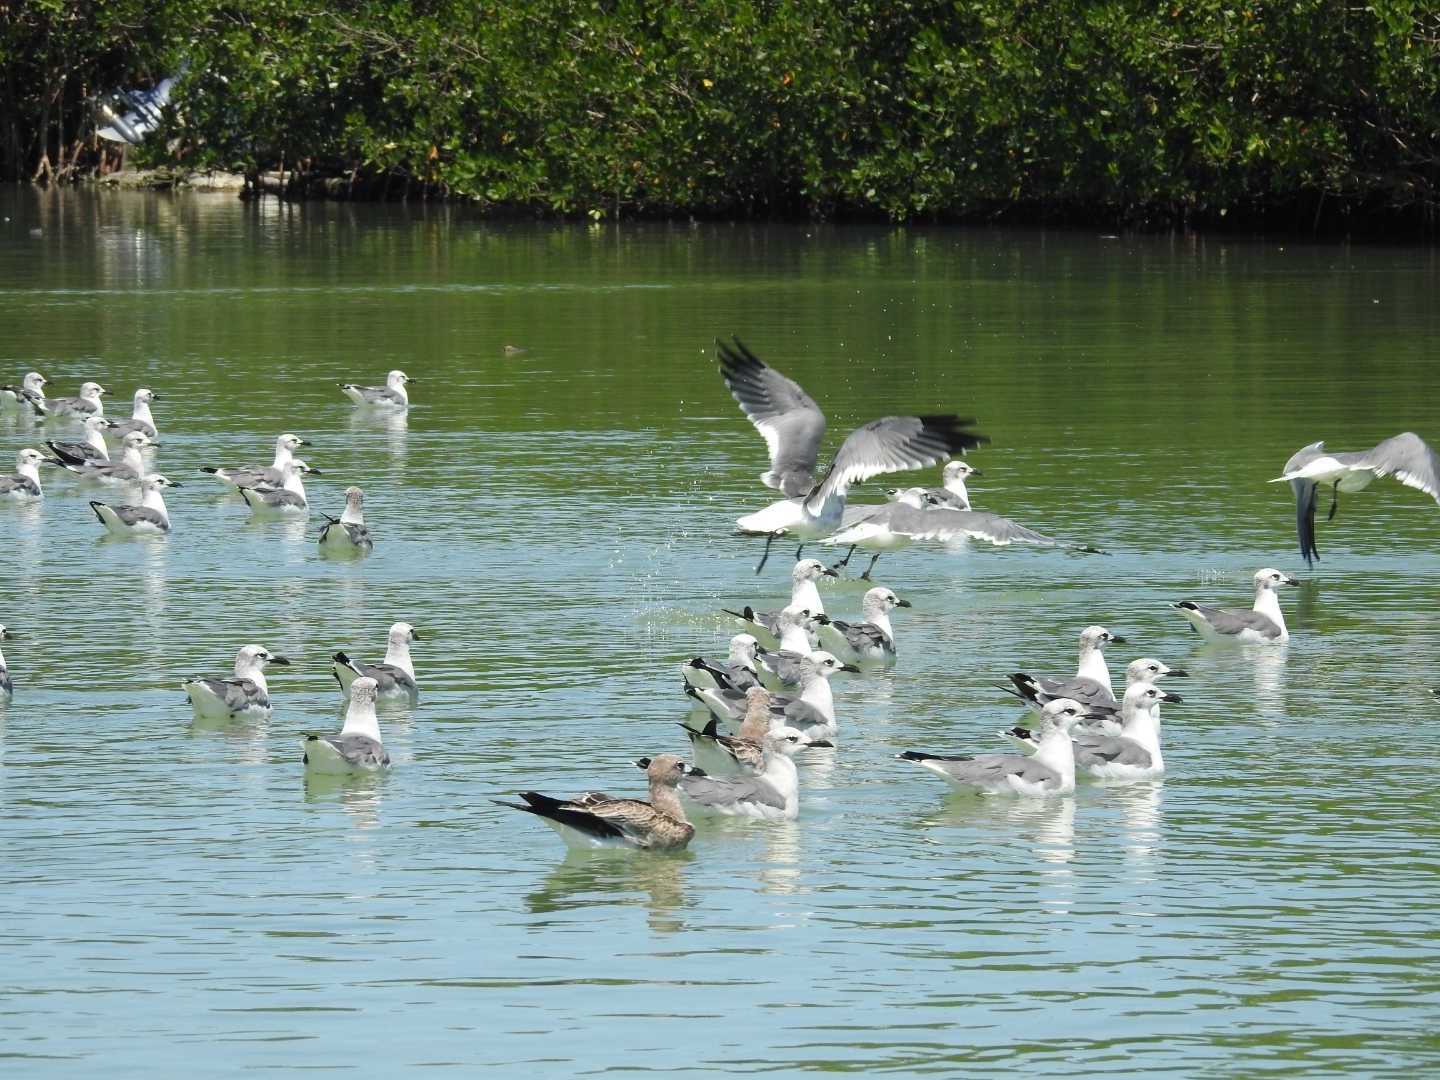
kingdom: Animalia
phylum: Chordata
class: Aves
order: Charadriiformes
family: Laridae
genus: Leucophaeus
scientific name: Leucophaeus atricilla
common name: Laughing gull
